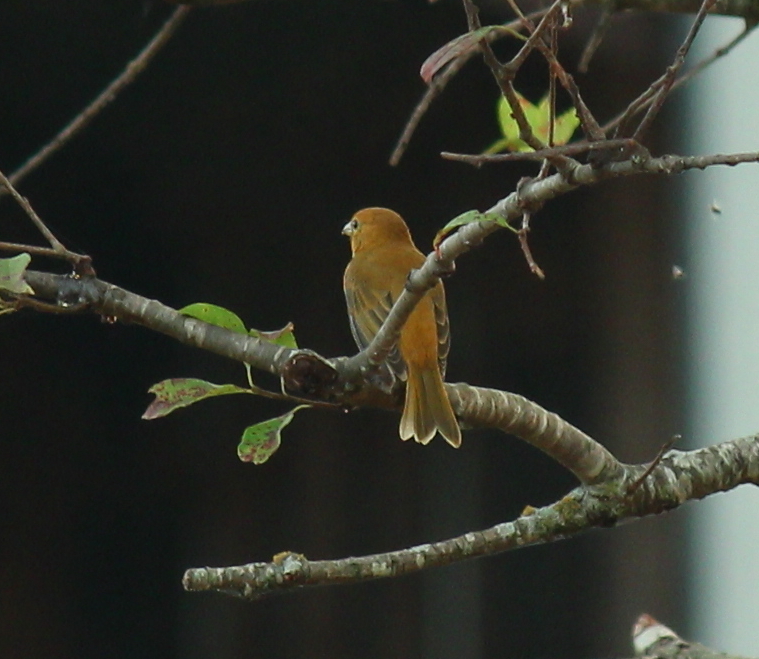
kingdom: Animalia
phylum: Chordata
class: Aves
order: Passeriformes
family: Cardinalidae
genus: Piranga
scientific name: Piranga rubra
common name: Summer tanager
